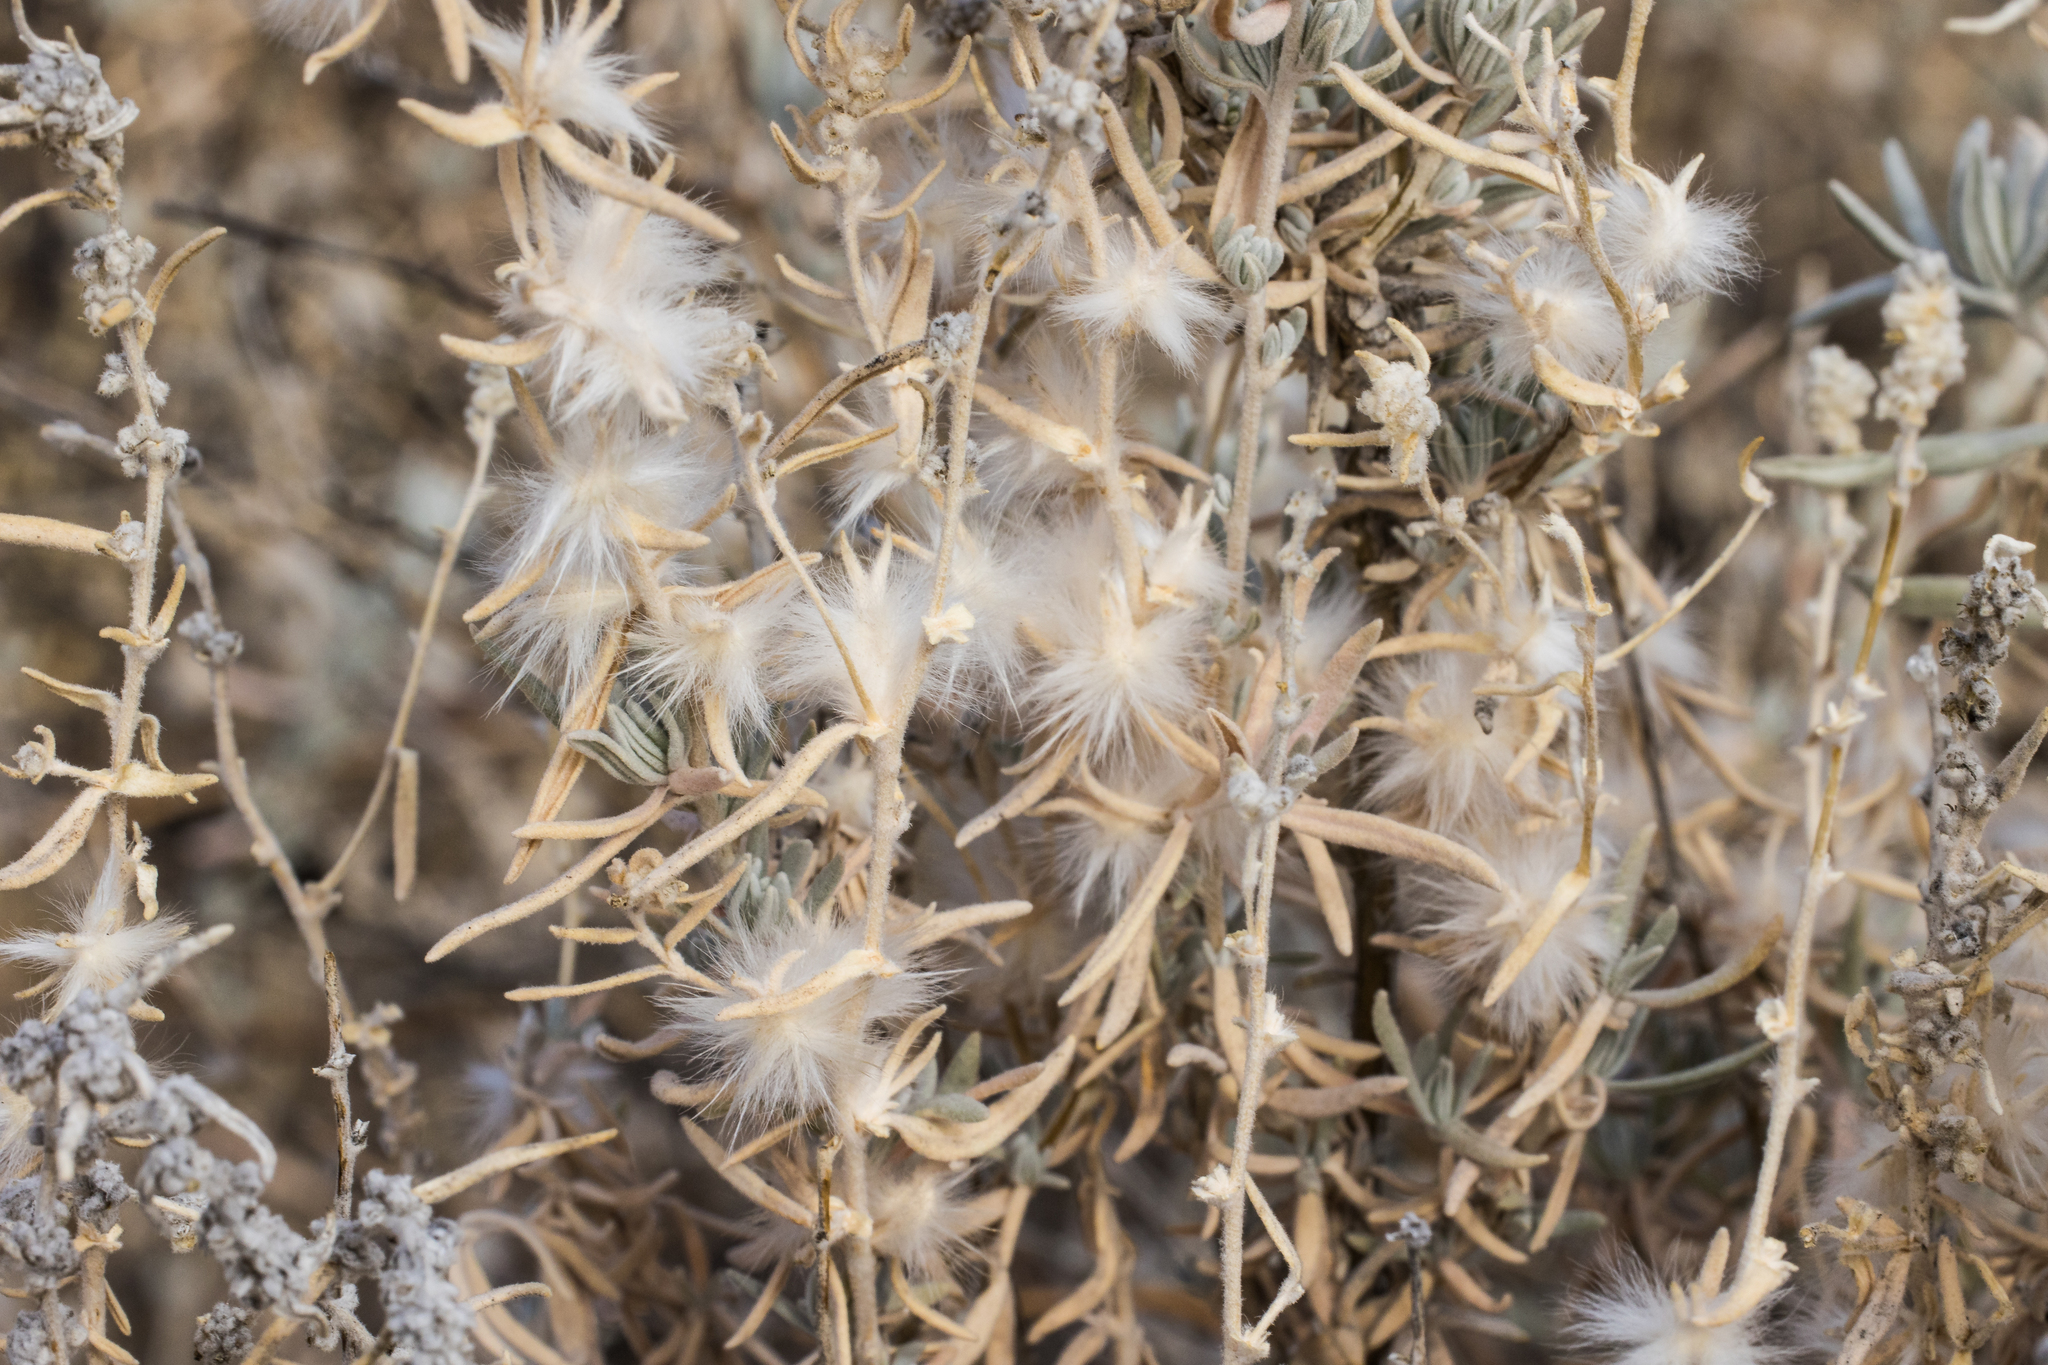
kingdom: Plantae
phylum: Tracheophyta
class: Magnoliopsida
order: Caryophyllales
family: Amaranthaceae
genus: Krascheninnikovia
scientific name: Krascheninnikovia lanata
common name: Winterfat
